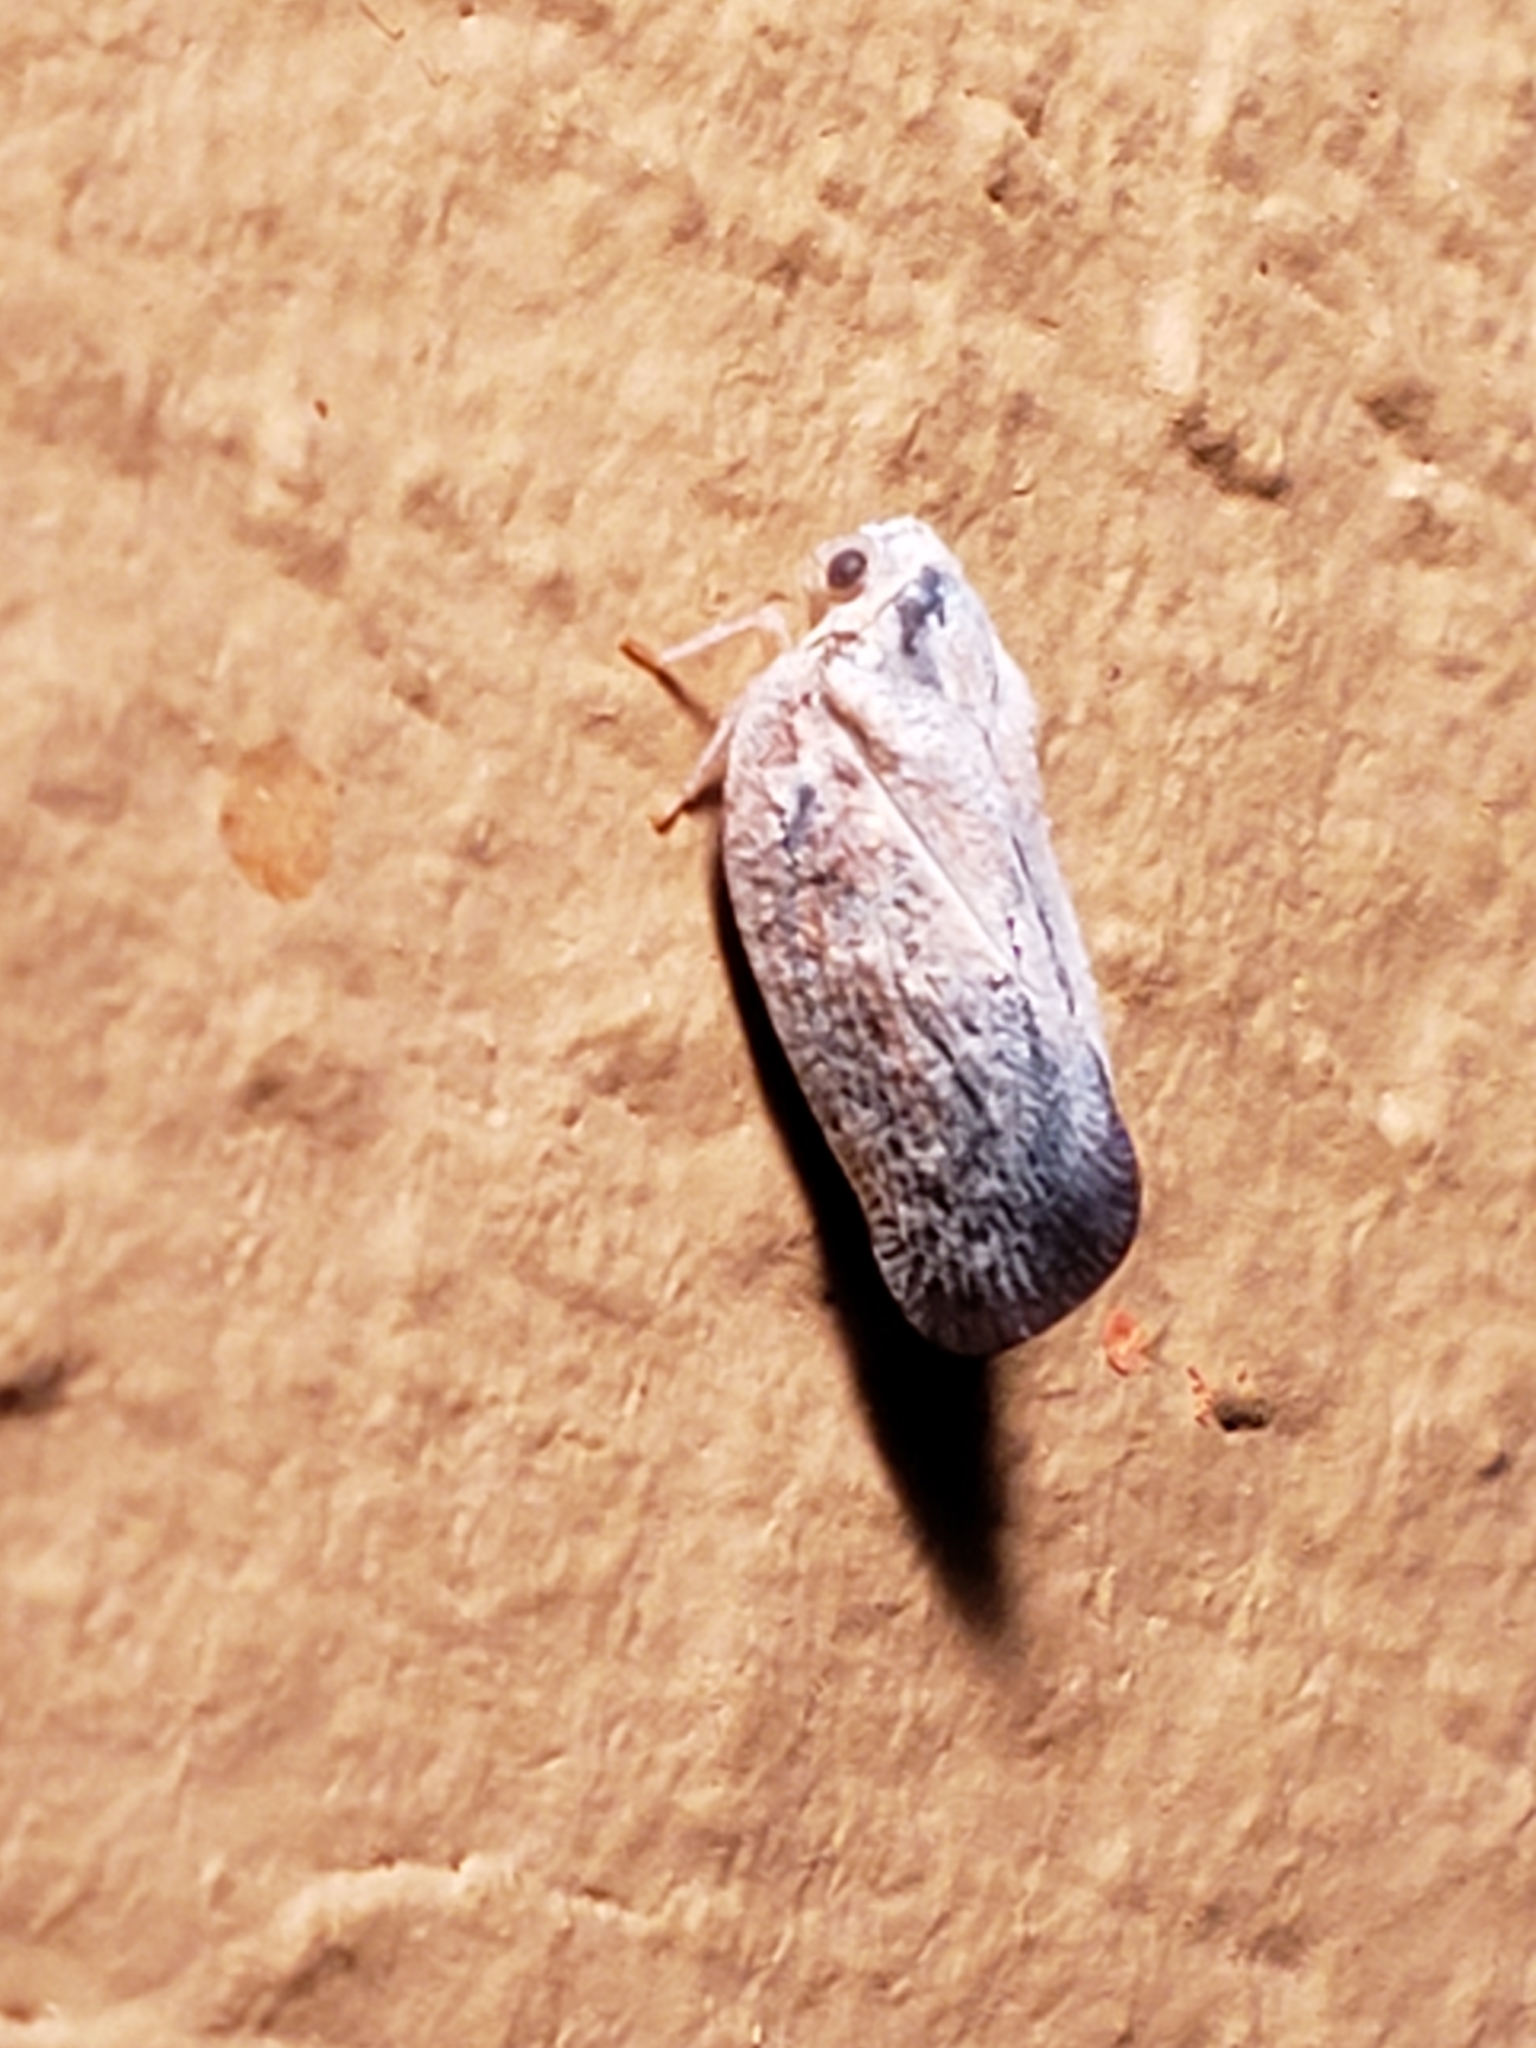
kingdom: Animalia
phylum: Arthropoda
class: Insecta
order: Hemiptera
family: Flatidae
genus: Metcalfa
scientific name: Metcalfa pruinosa
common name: Citrus flatid planthopper
